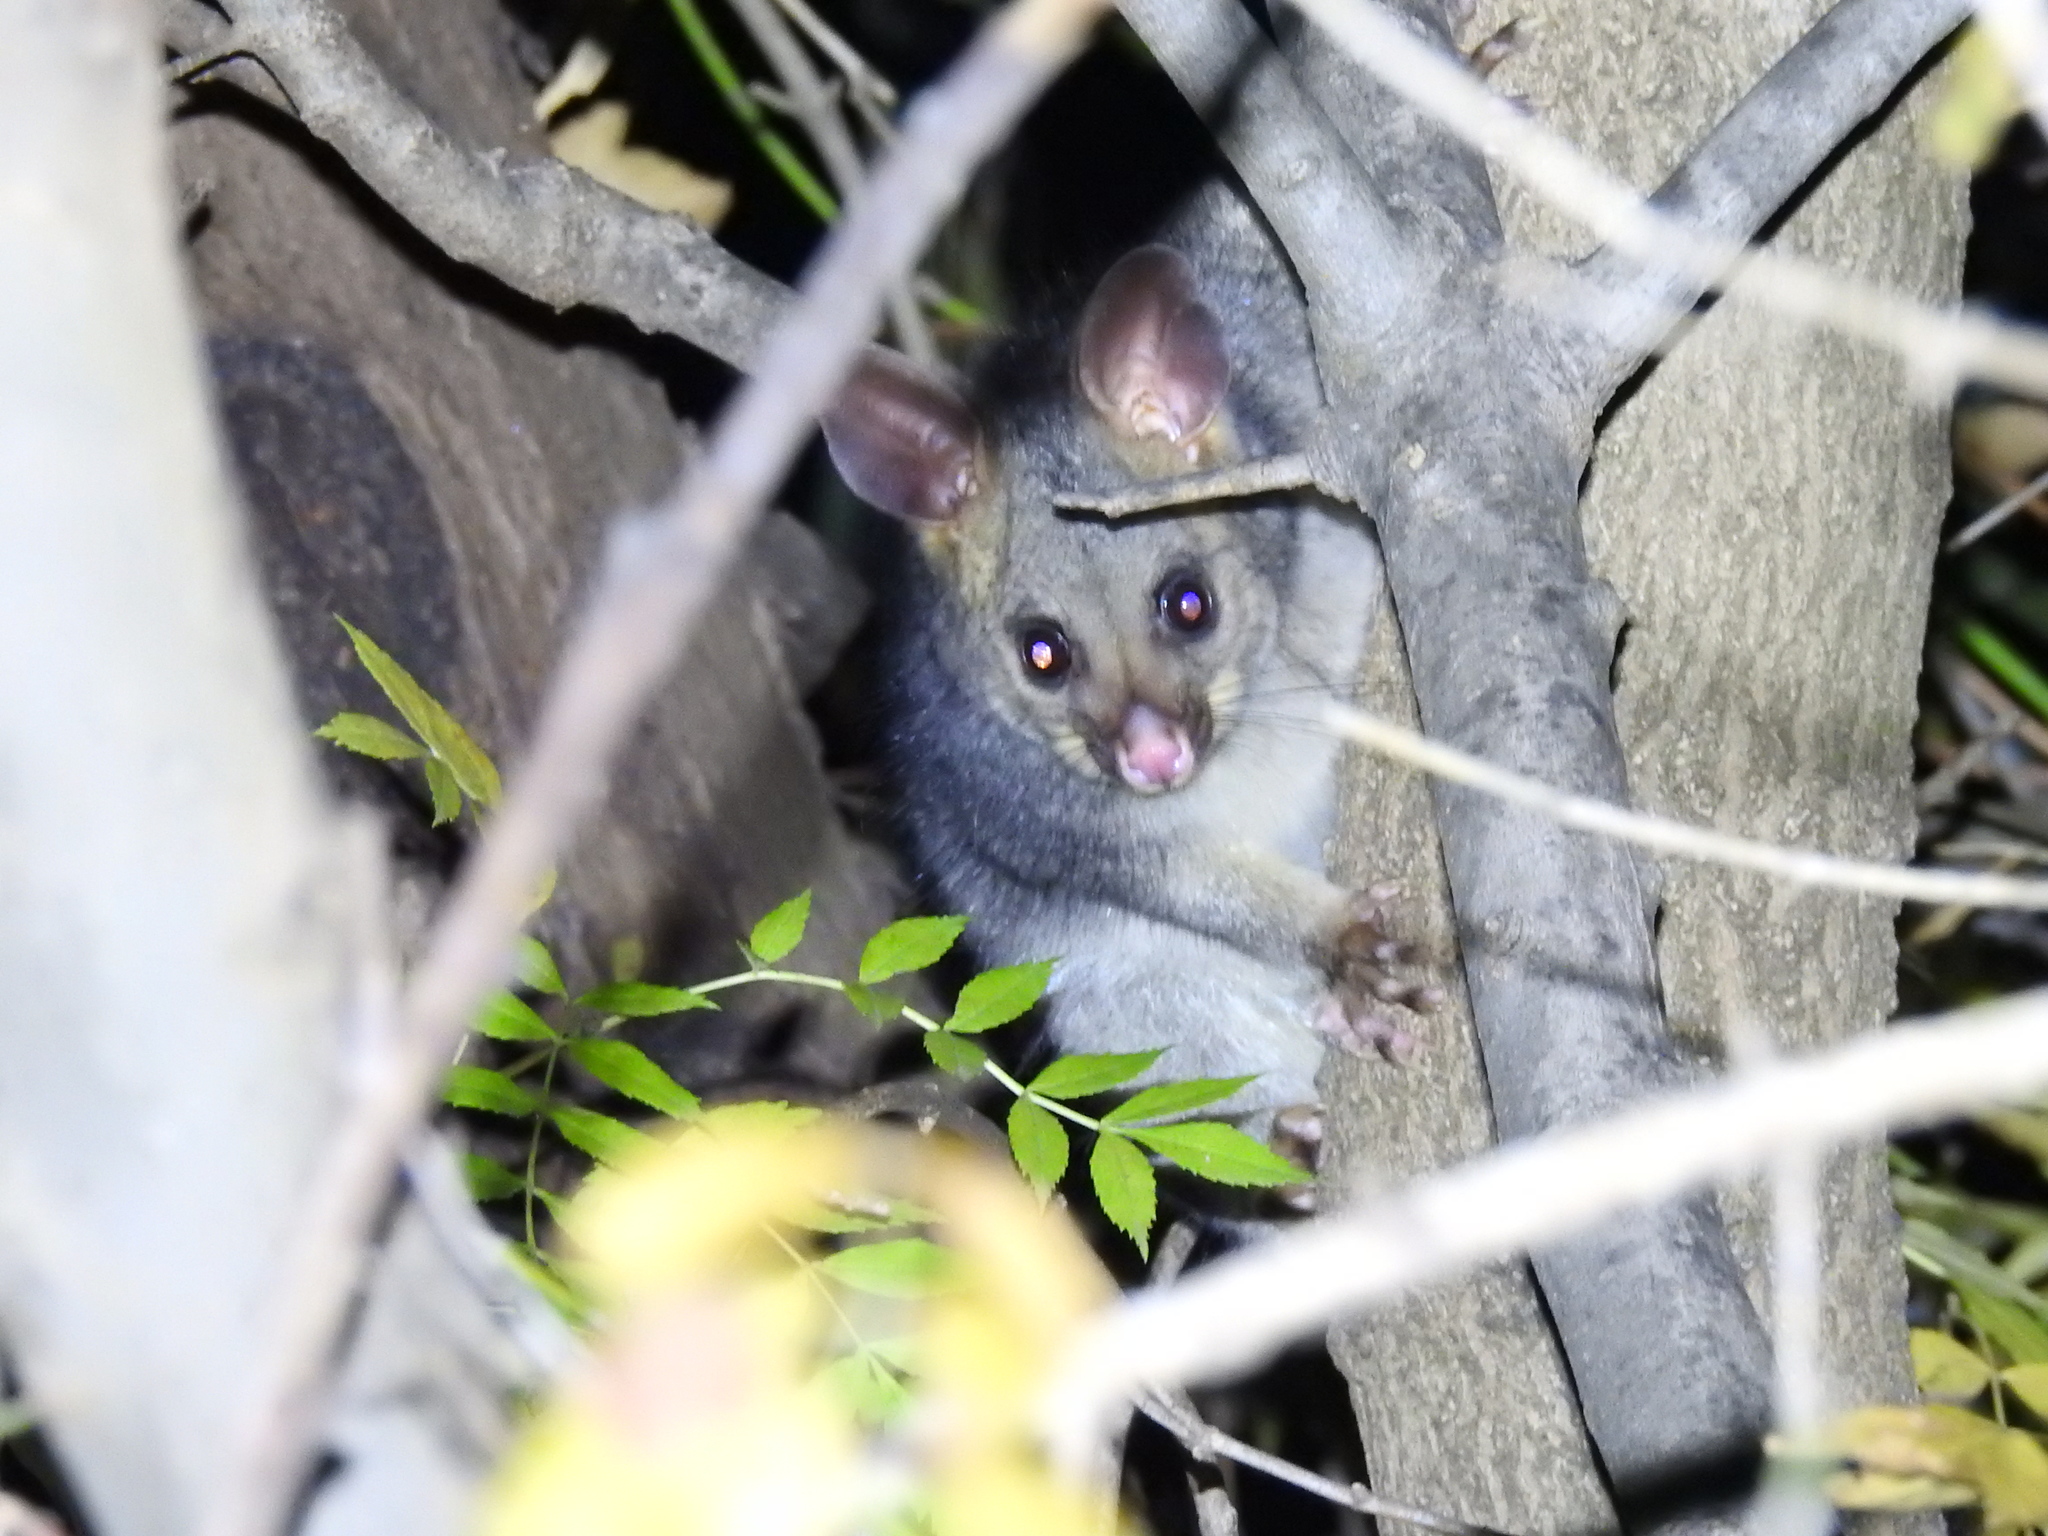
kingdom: Animalia
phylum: Chordata
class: Mammalia
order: Diprotodontia
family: Phalangeridae
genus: Trichosurus
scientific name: Trichosurus vulpecula
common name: Common brushtail
